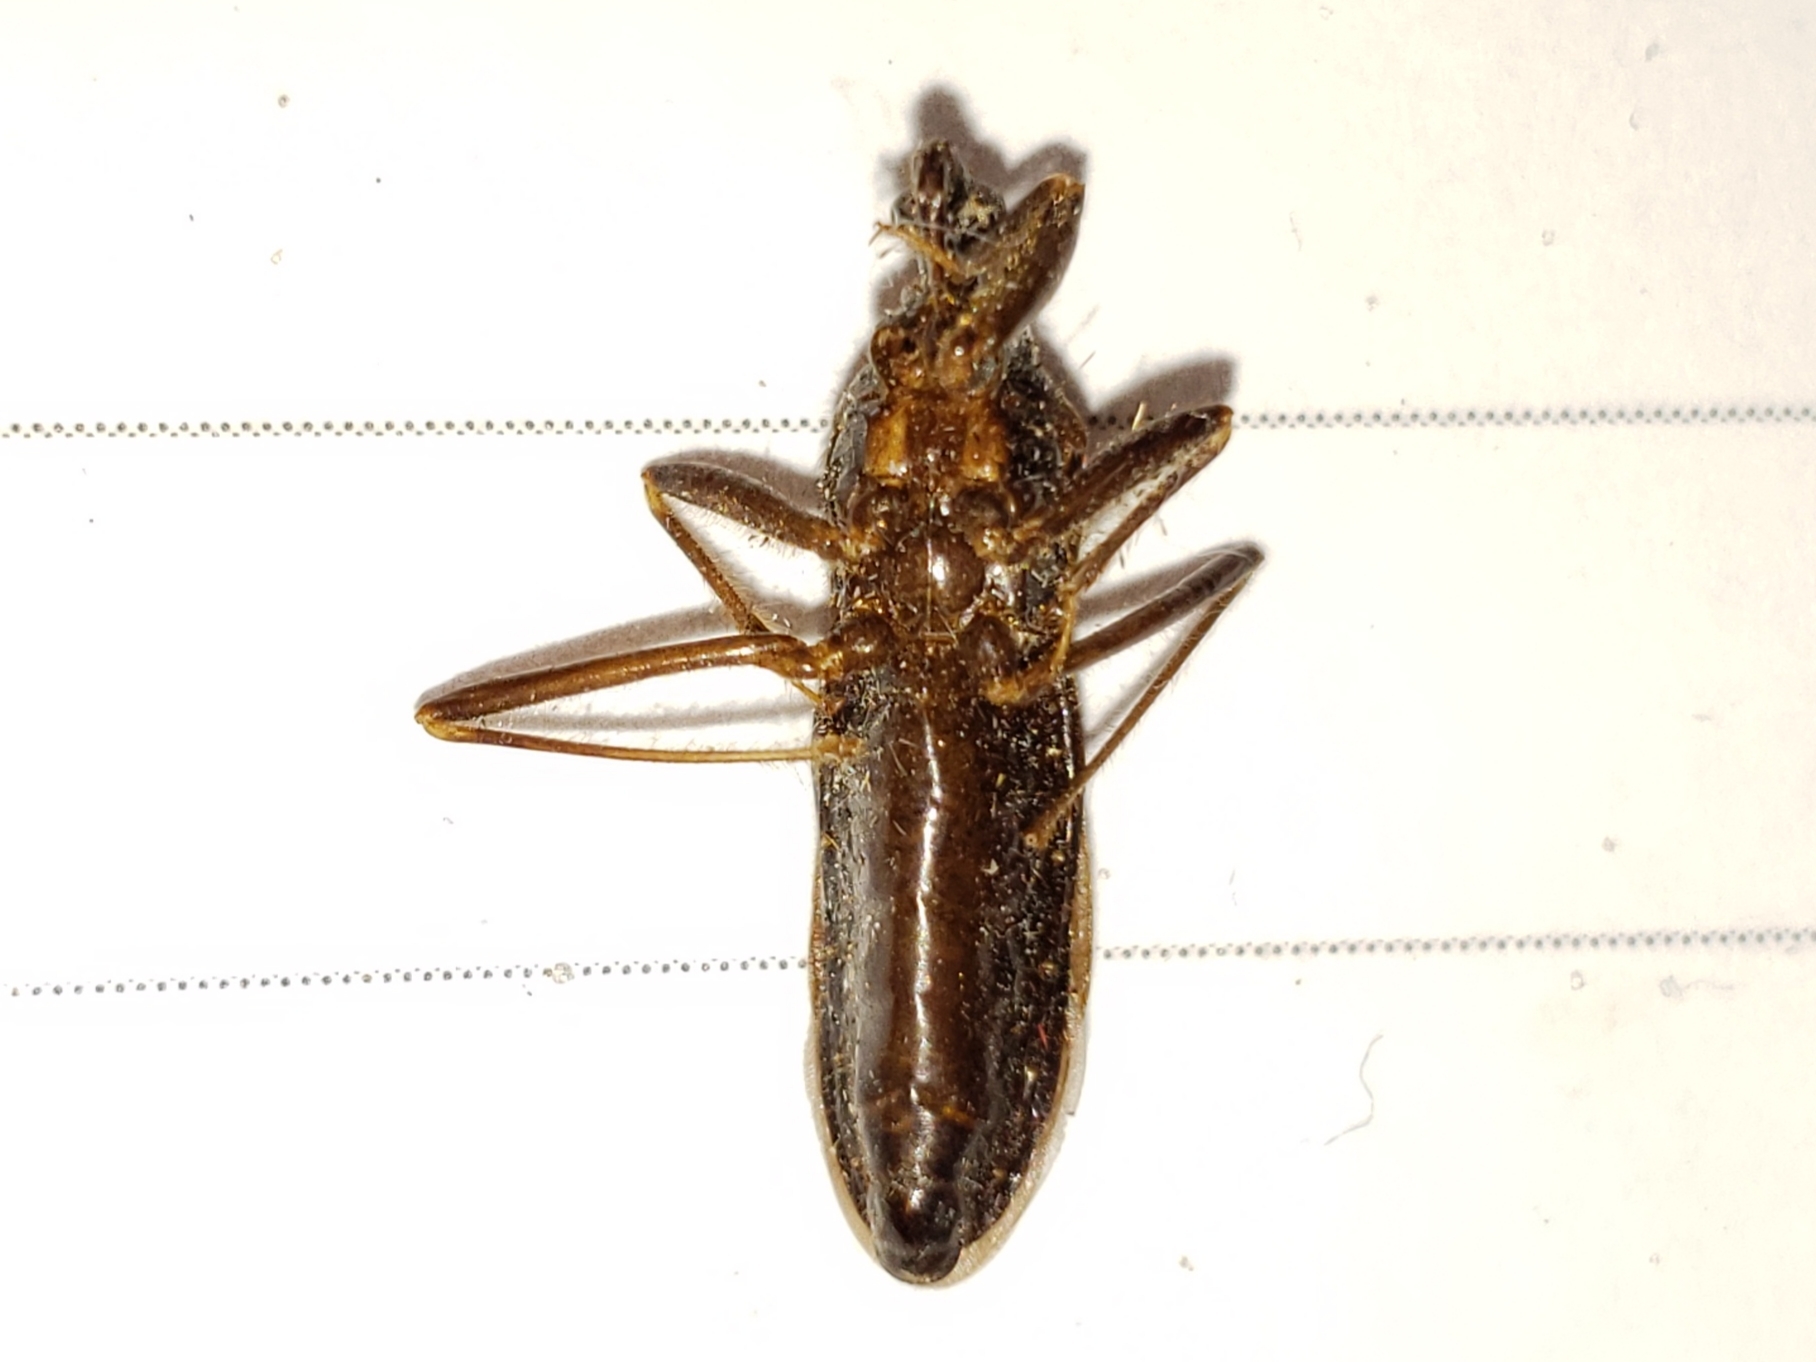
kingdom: Animalia
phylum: Arthropoda
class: Insecta
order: Hemiptera
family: Reduviidae
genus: Reduvius
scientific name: Reduvius personatus
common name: Masked hunter
